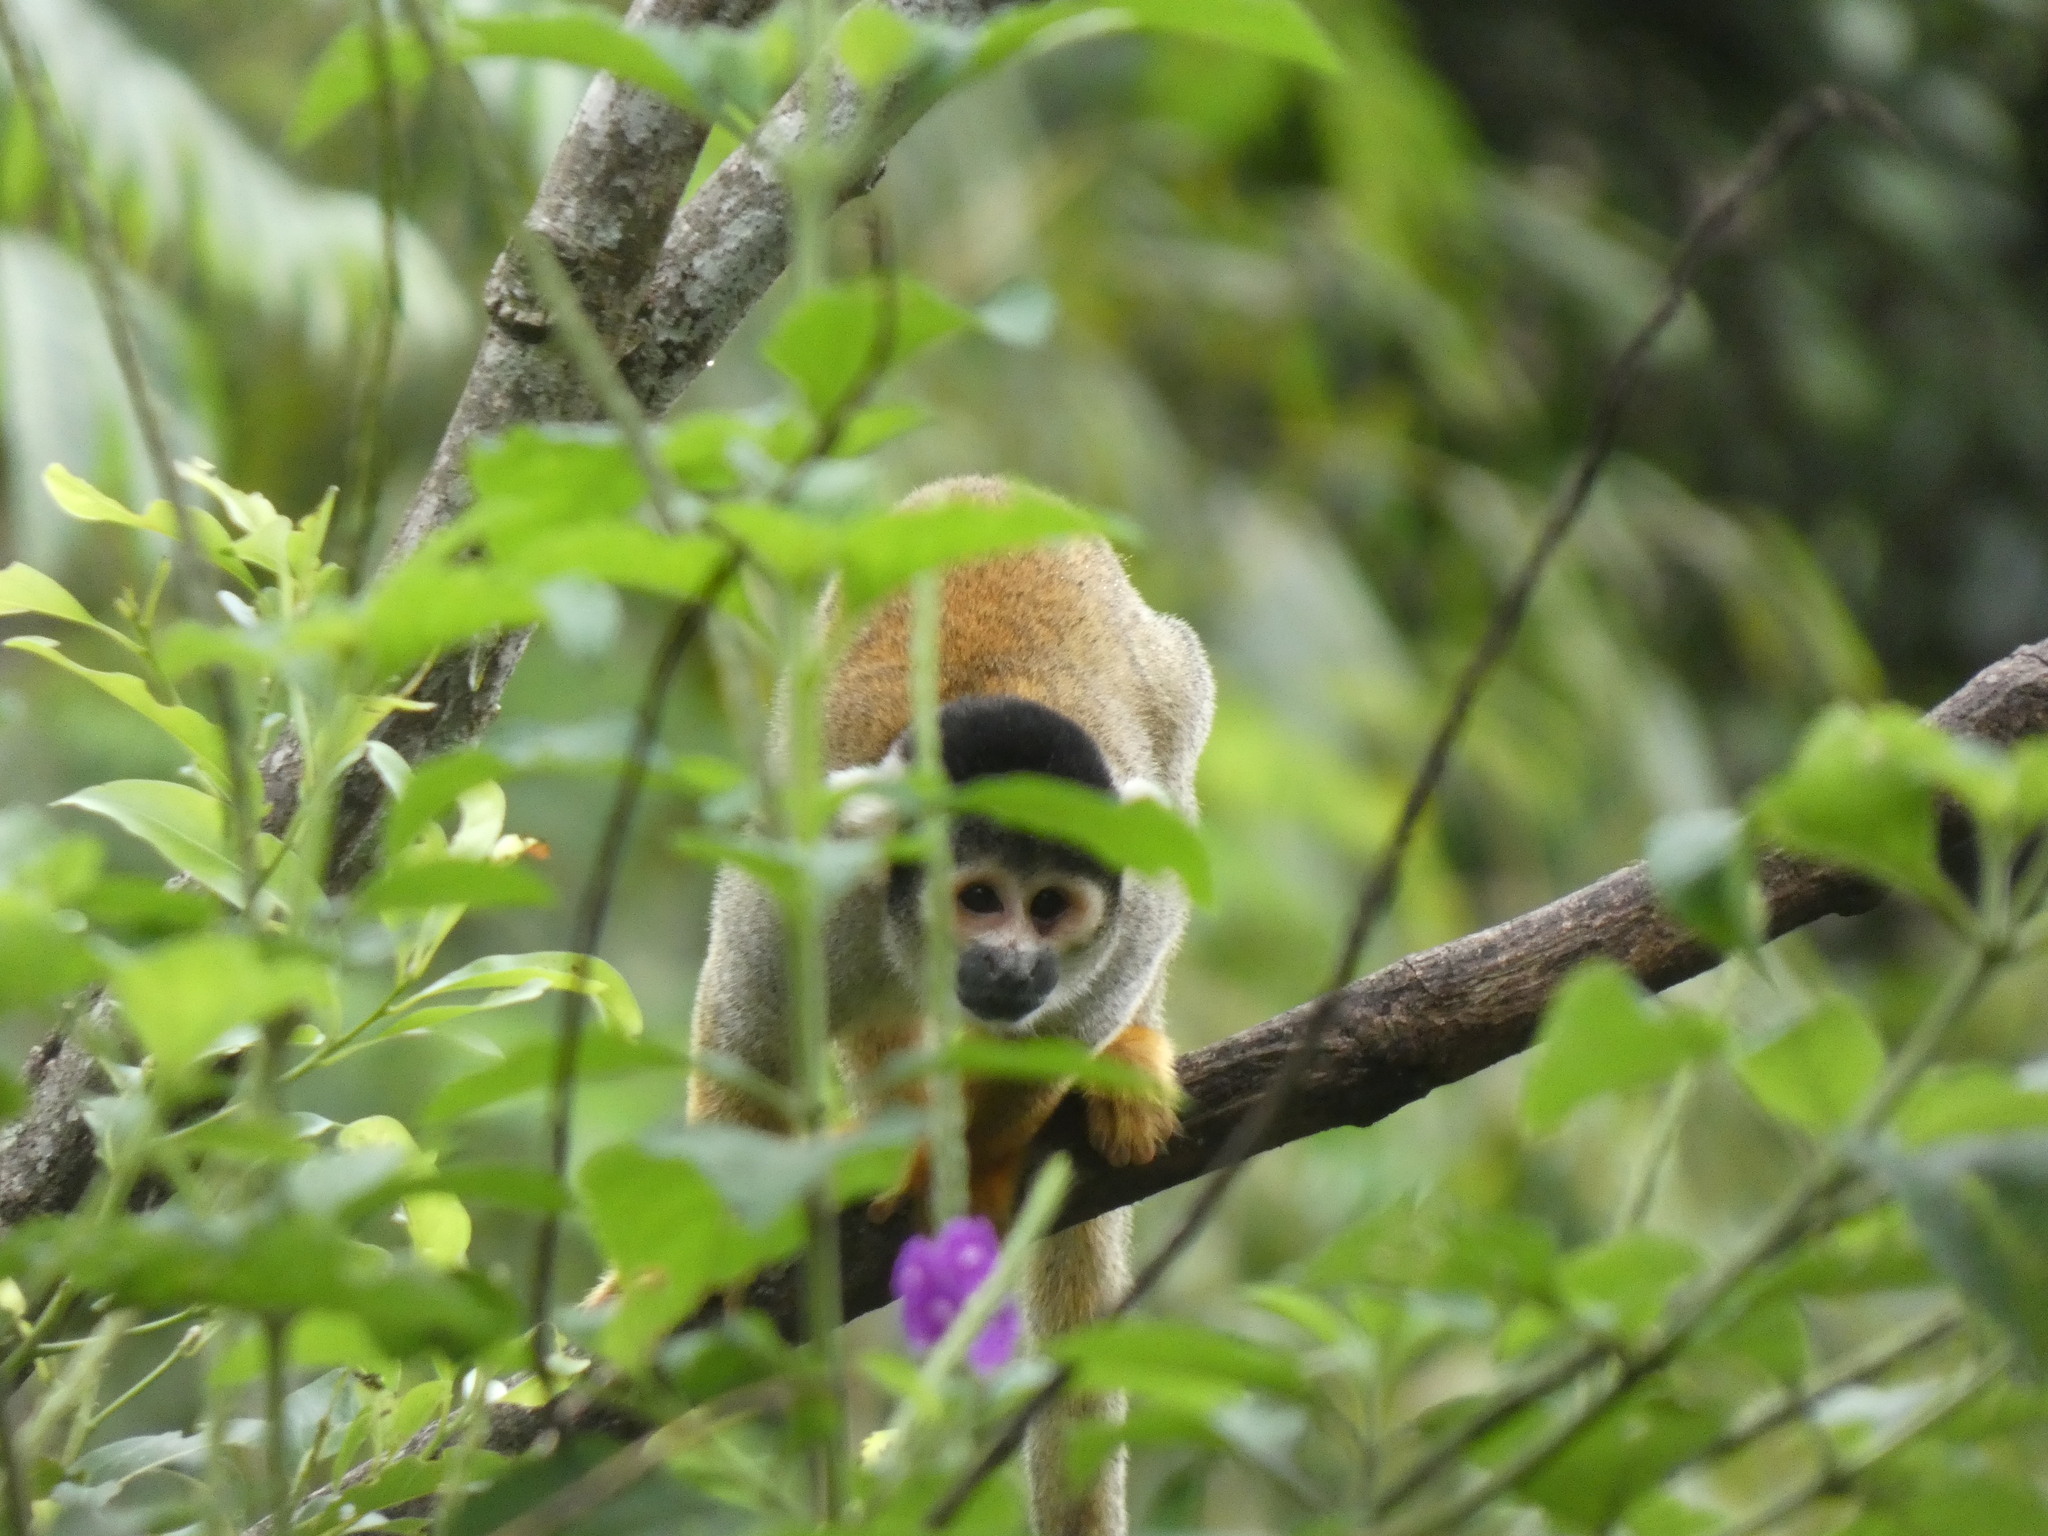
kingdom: Animalia
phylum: Chordata
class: Mammalia
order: Primates
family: Cebidae
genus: Saimiri
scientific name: Saimiri boliviensis
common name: Black-capped squirrel monkey
